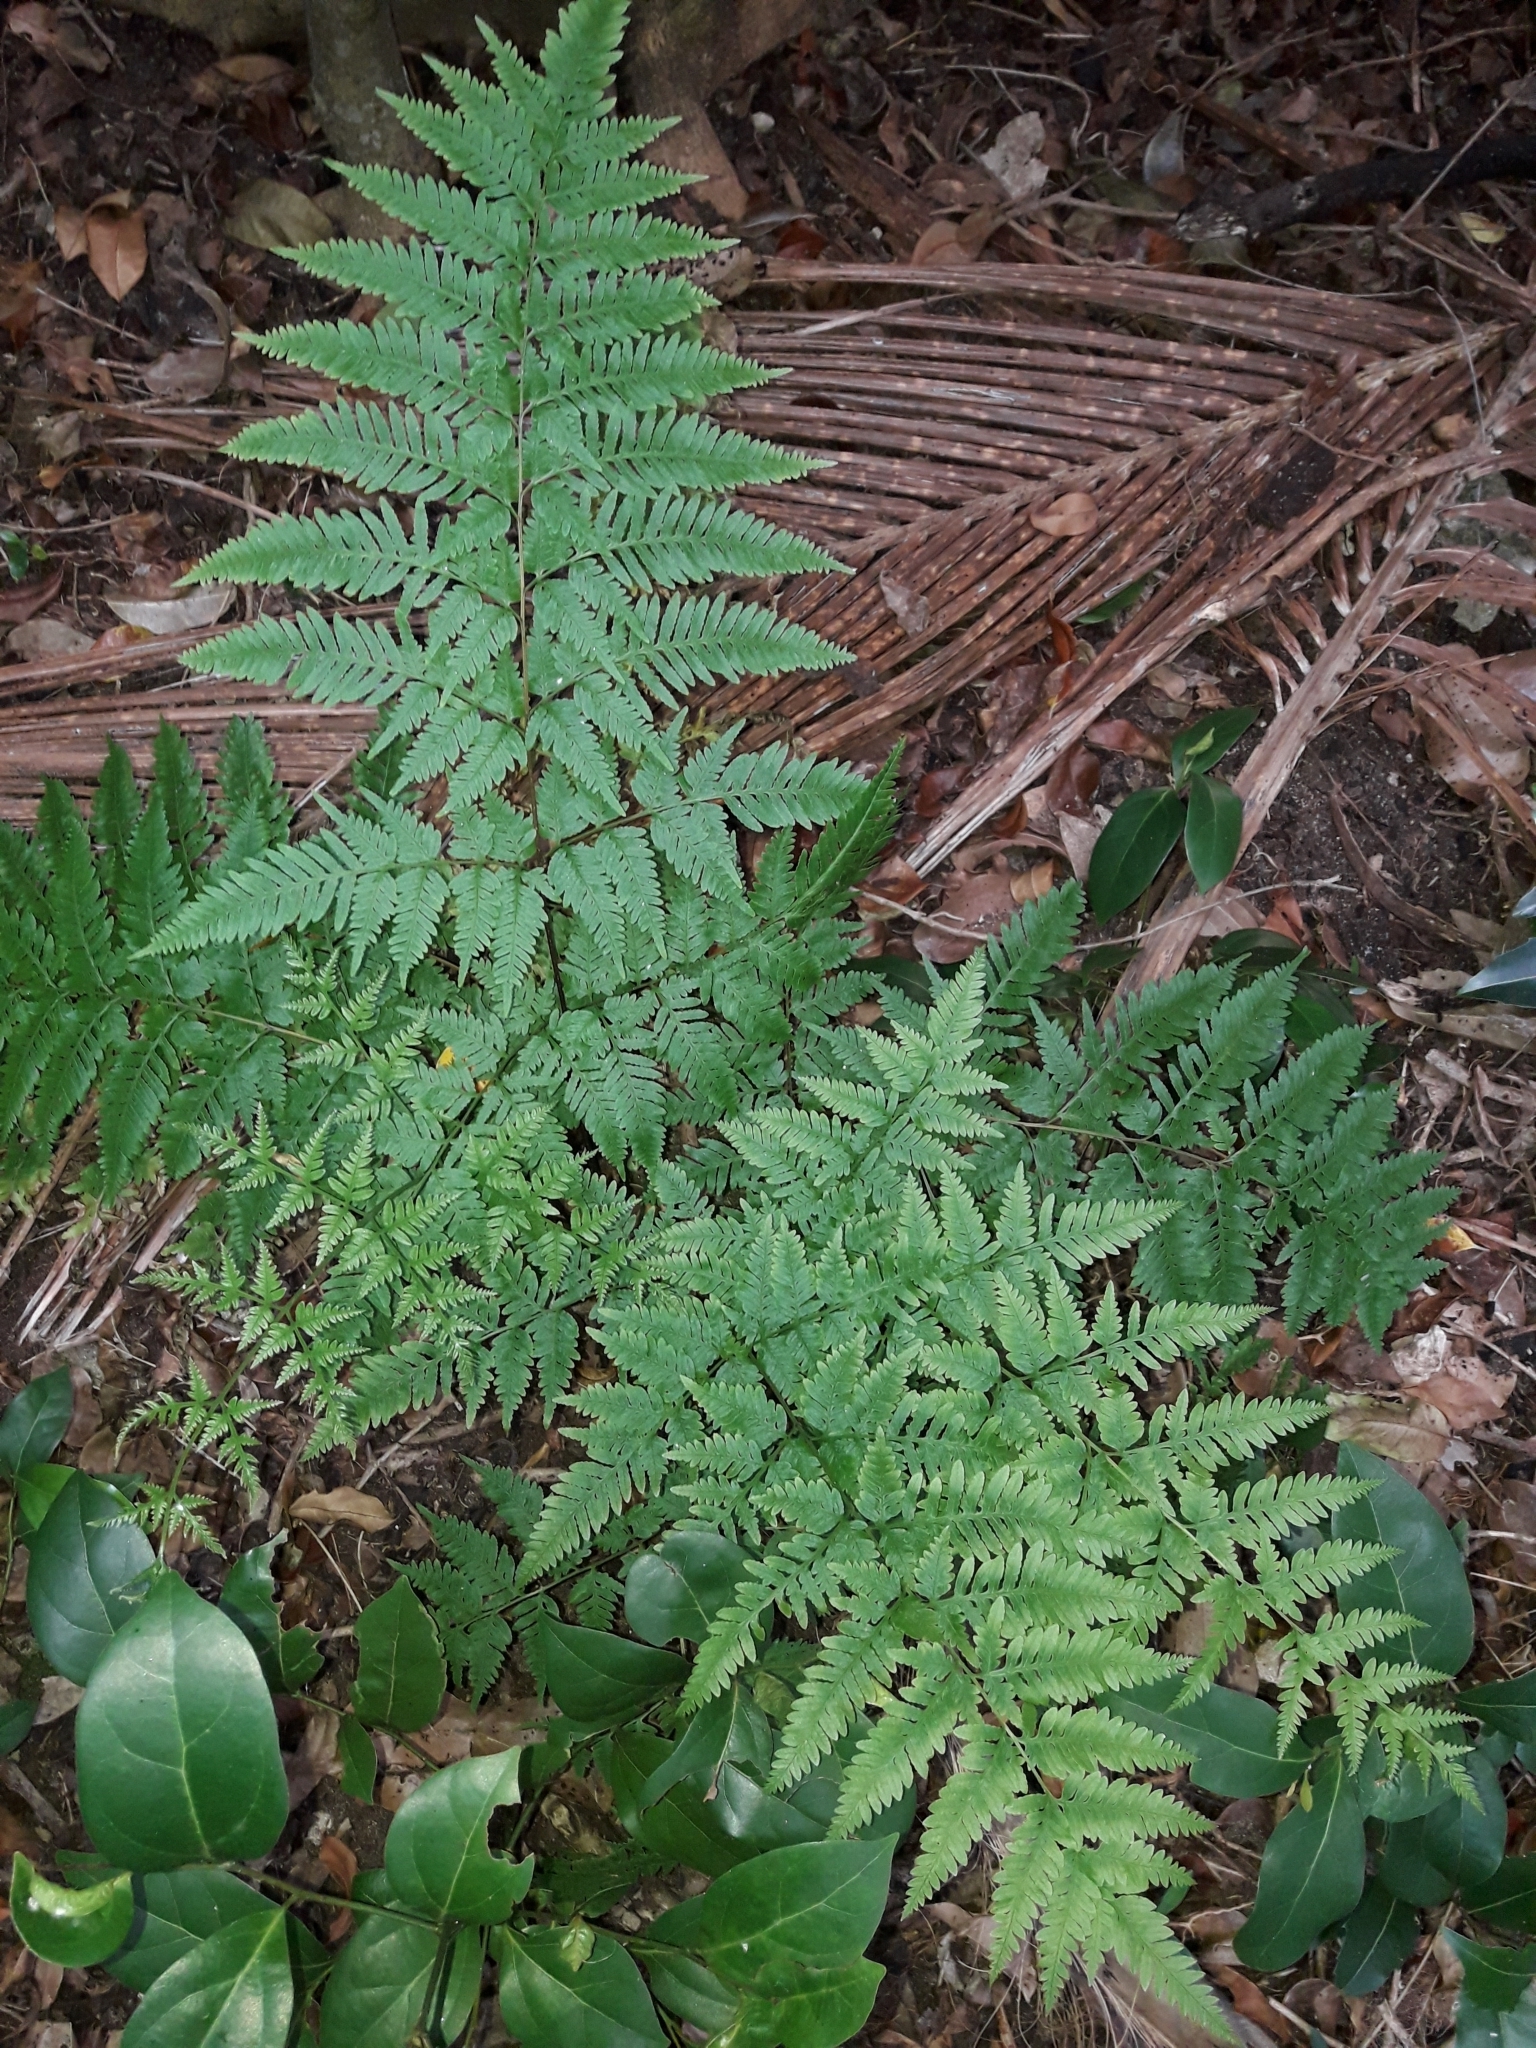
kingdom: Plantae
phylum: Tracheophyta
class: Polypodiopsida
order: Polypodiales
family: Pteridaceae
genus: Pteris
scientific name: Pteris tremula
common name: Australian brake
